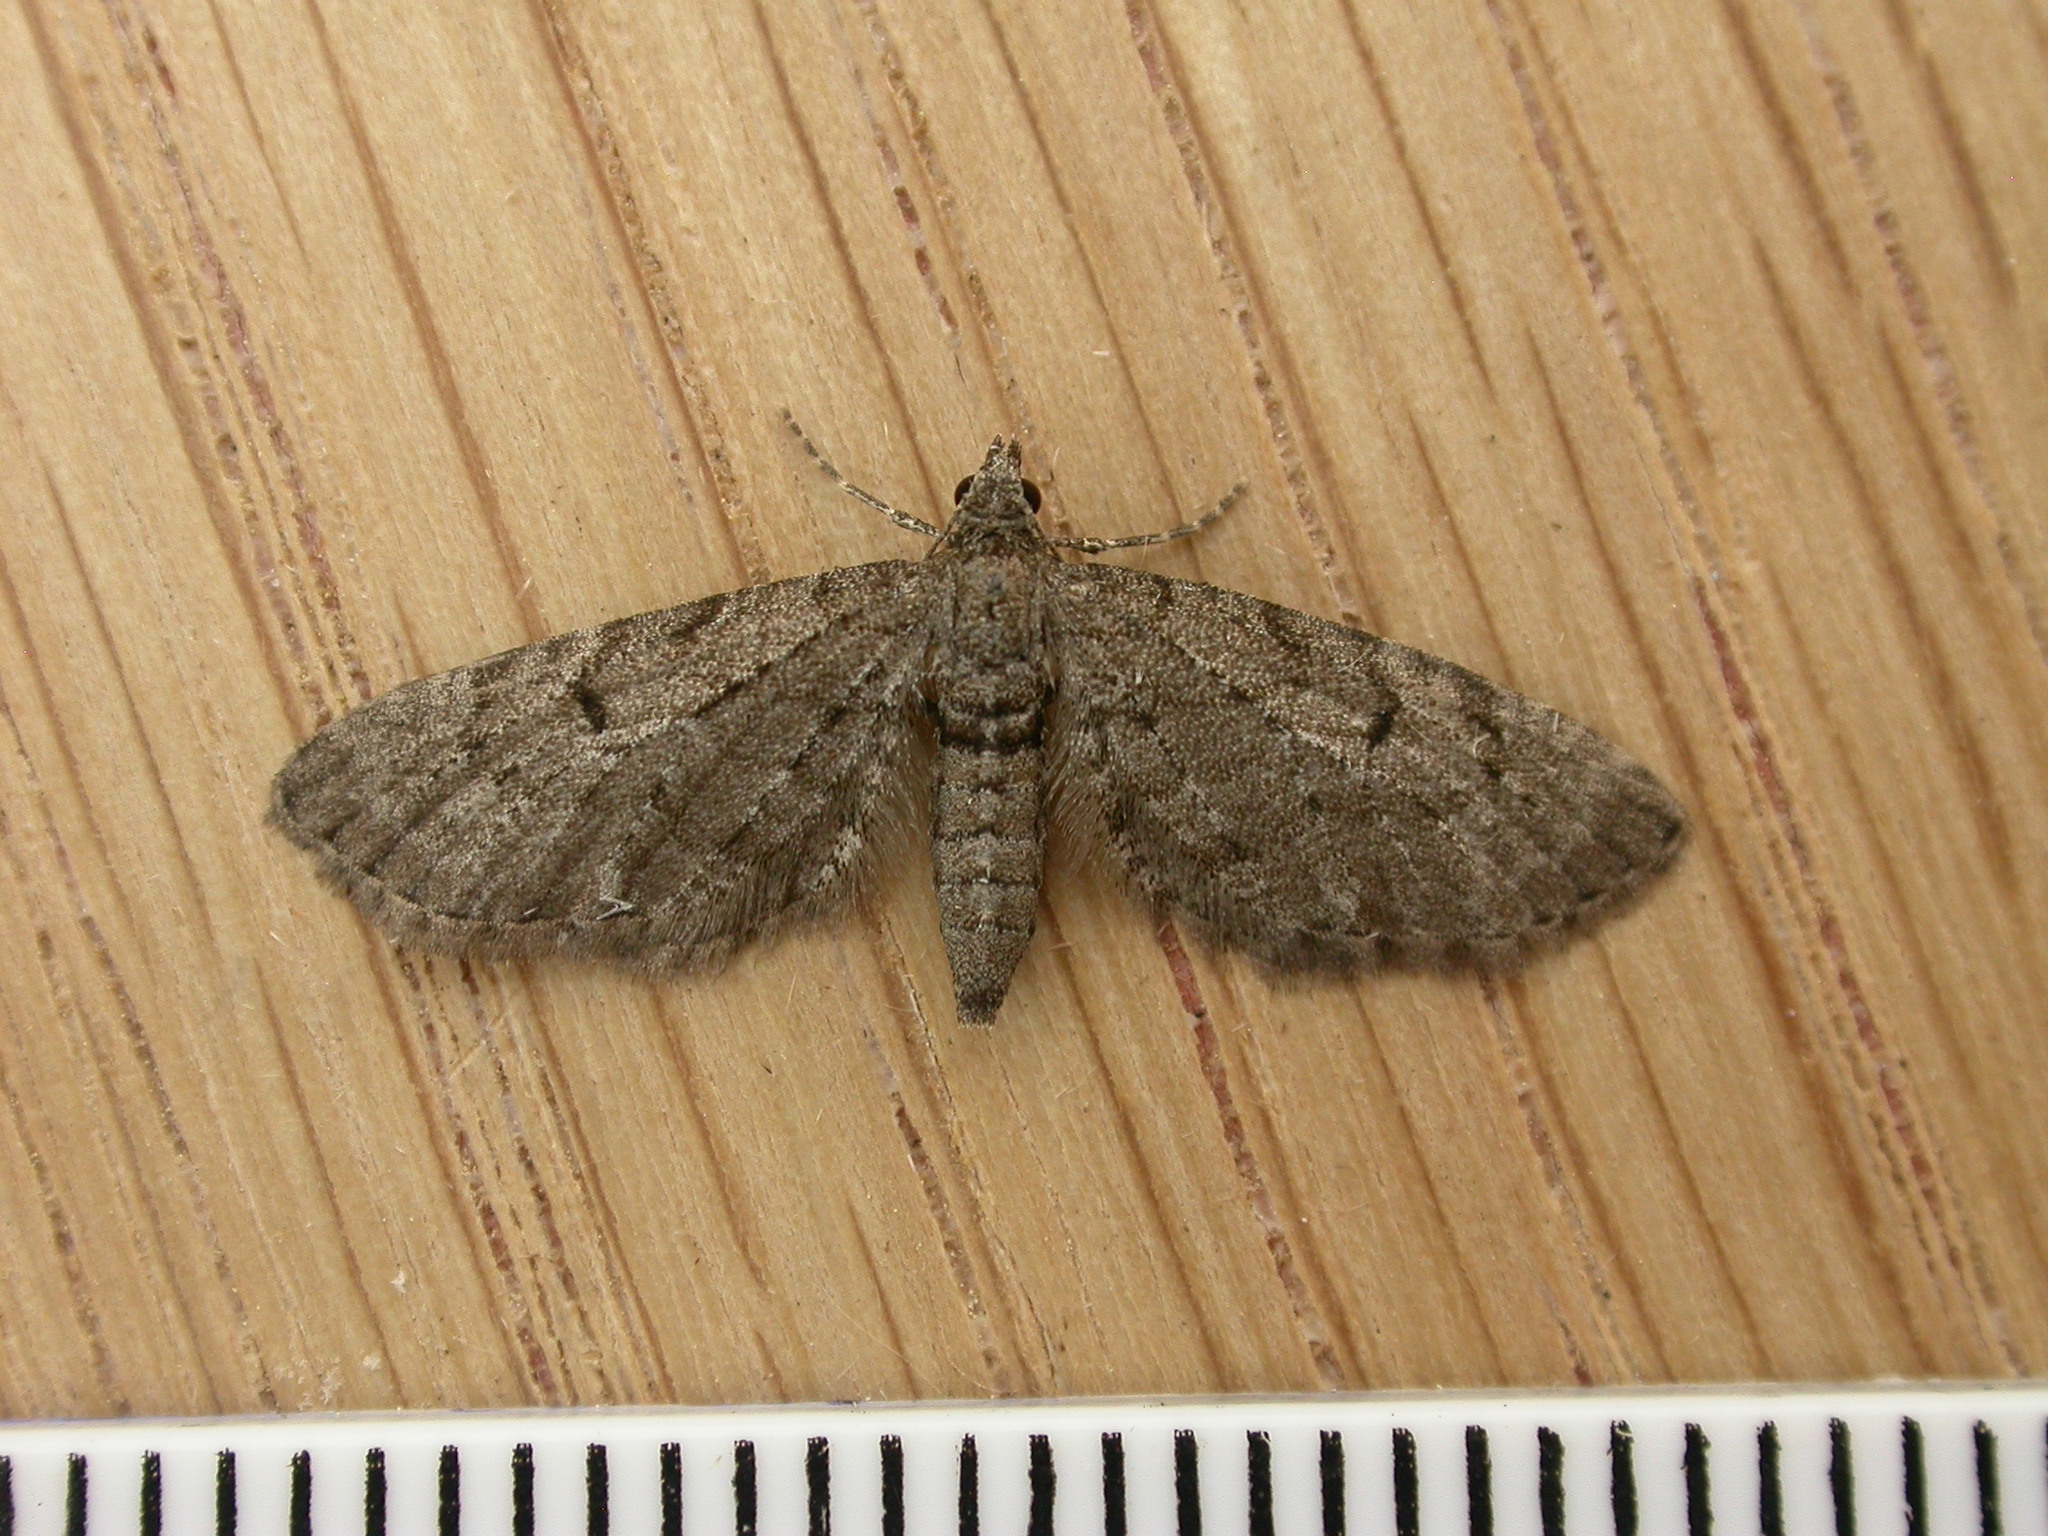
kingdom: Animalia
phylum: Arthropoda
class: Insecta
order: Lepidoptera
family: Geometridae
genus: Eupithecia
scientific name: Eupithecia intricata
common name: Freyers pug
